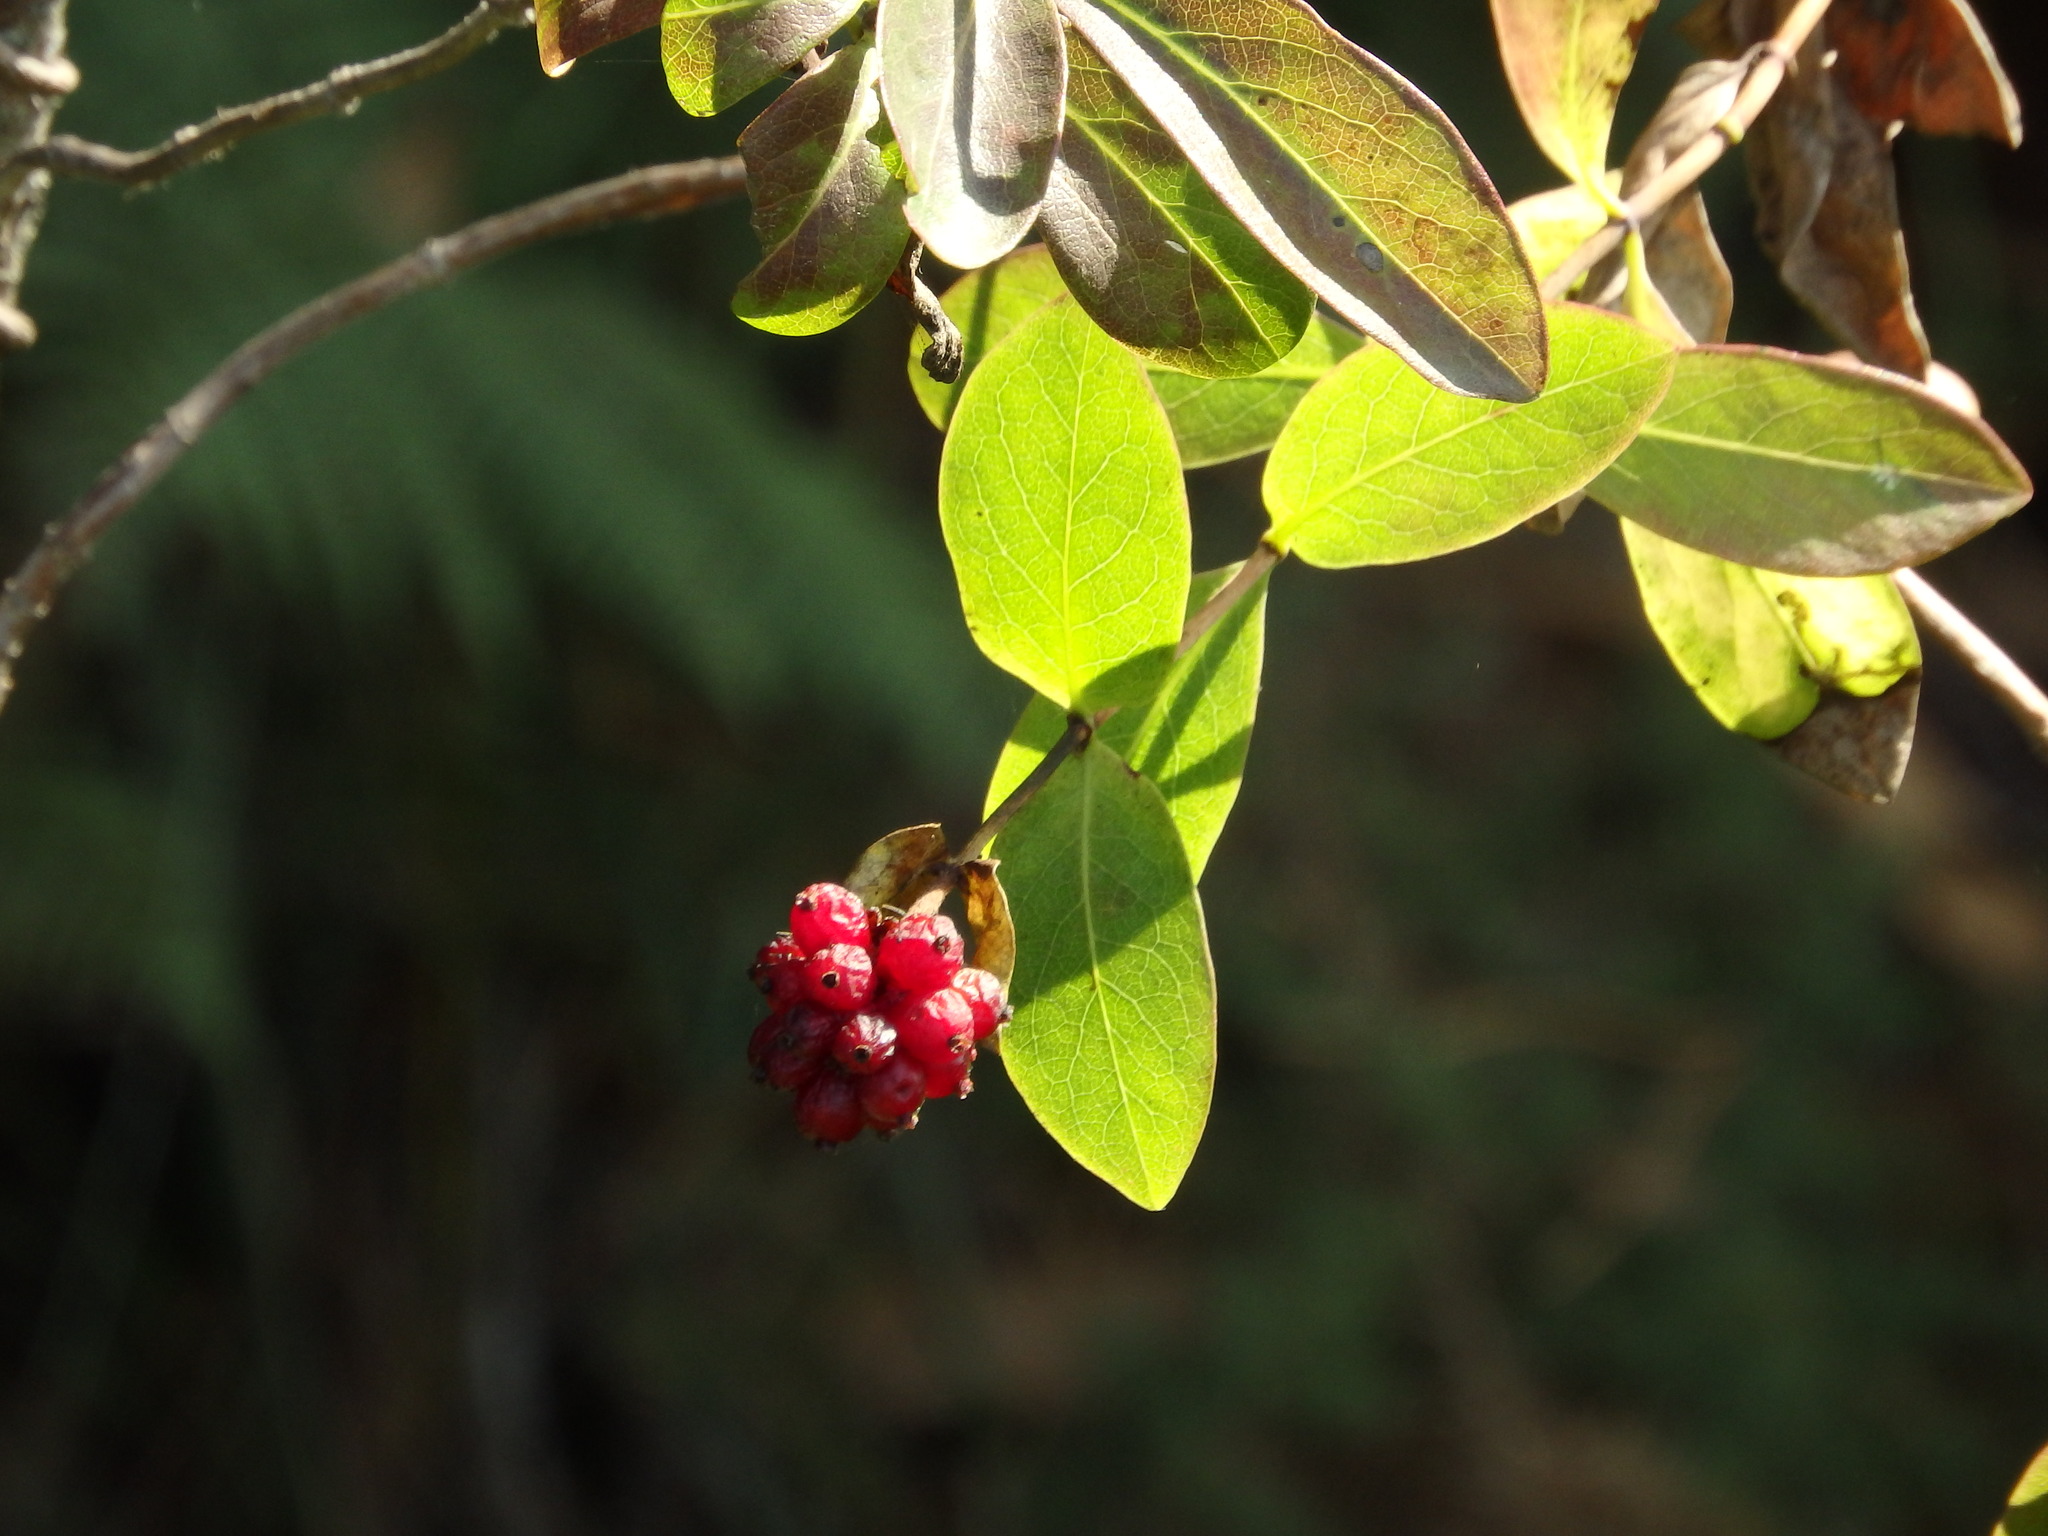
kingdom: Plantae
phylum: Tracheophyta
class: Magnoliopsida
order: Dipsacales
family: Caprifoliaceae
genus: Lonicera
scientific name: Lonicera periclymenum
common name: European honeysuckle
